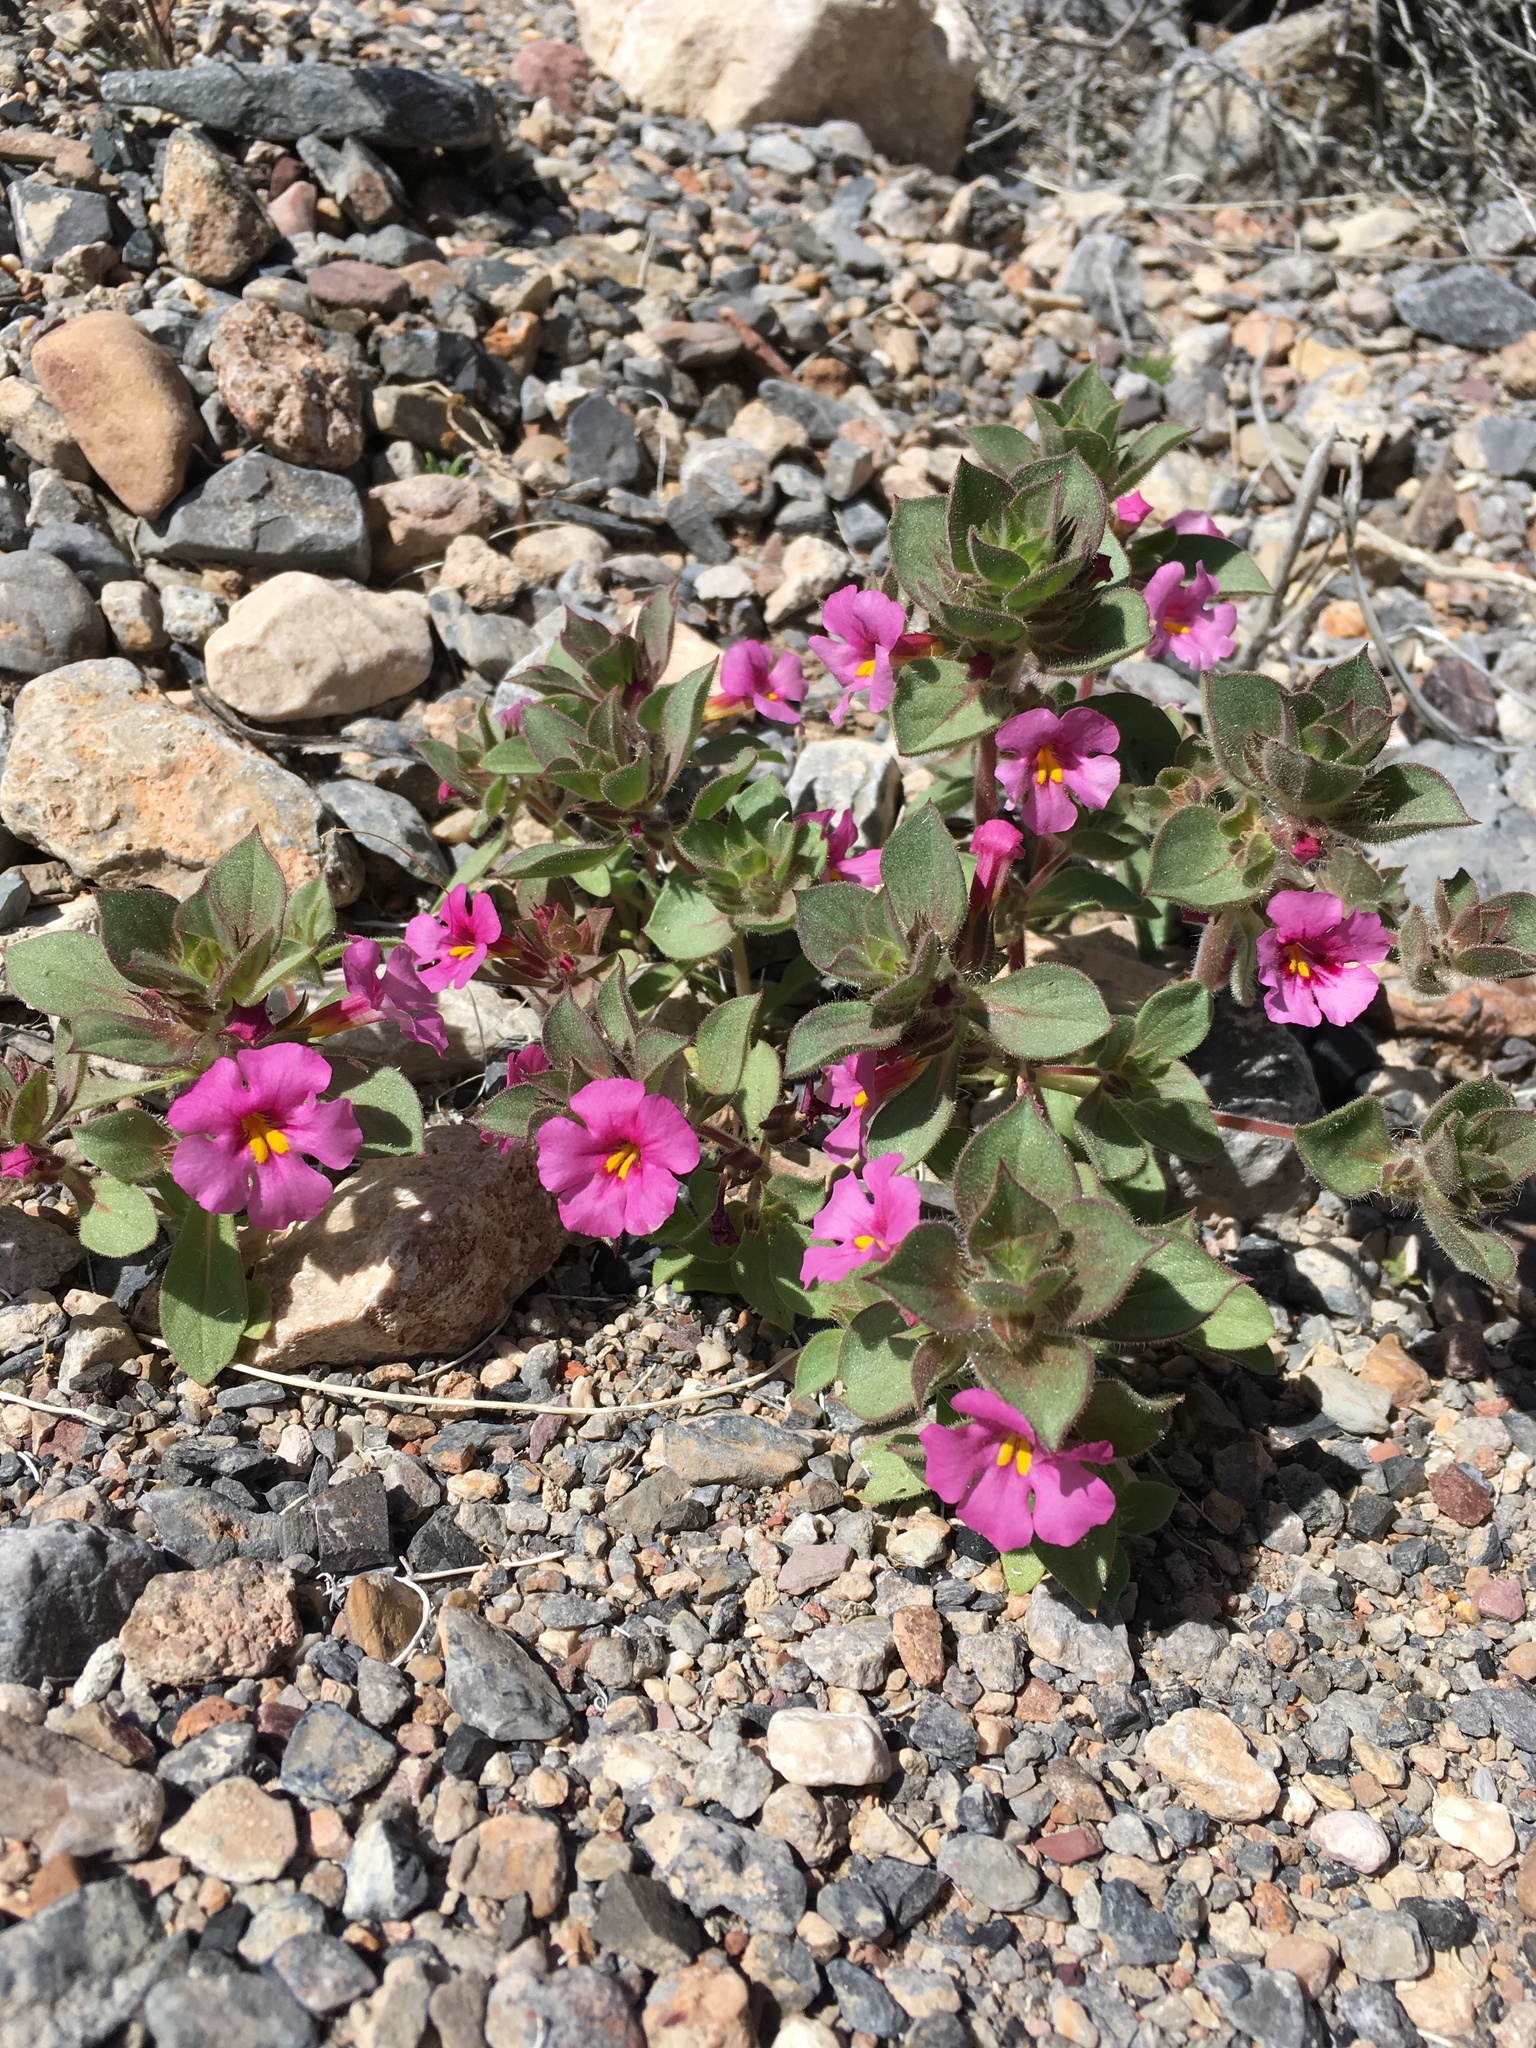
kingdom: Plantae
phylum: Tracheophyta
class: Magnoliopsida
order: Lamiales
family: Phrymaceae
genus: Diplacus
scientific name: Diplacus bigelovii
